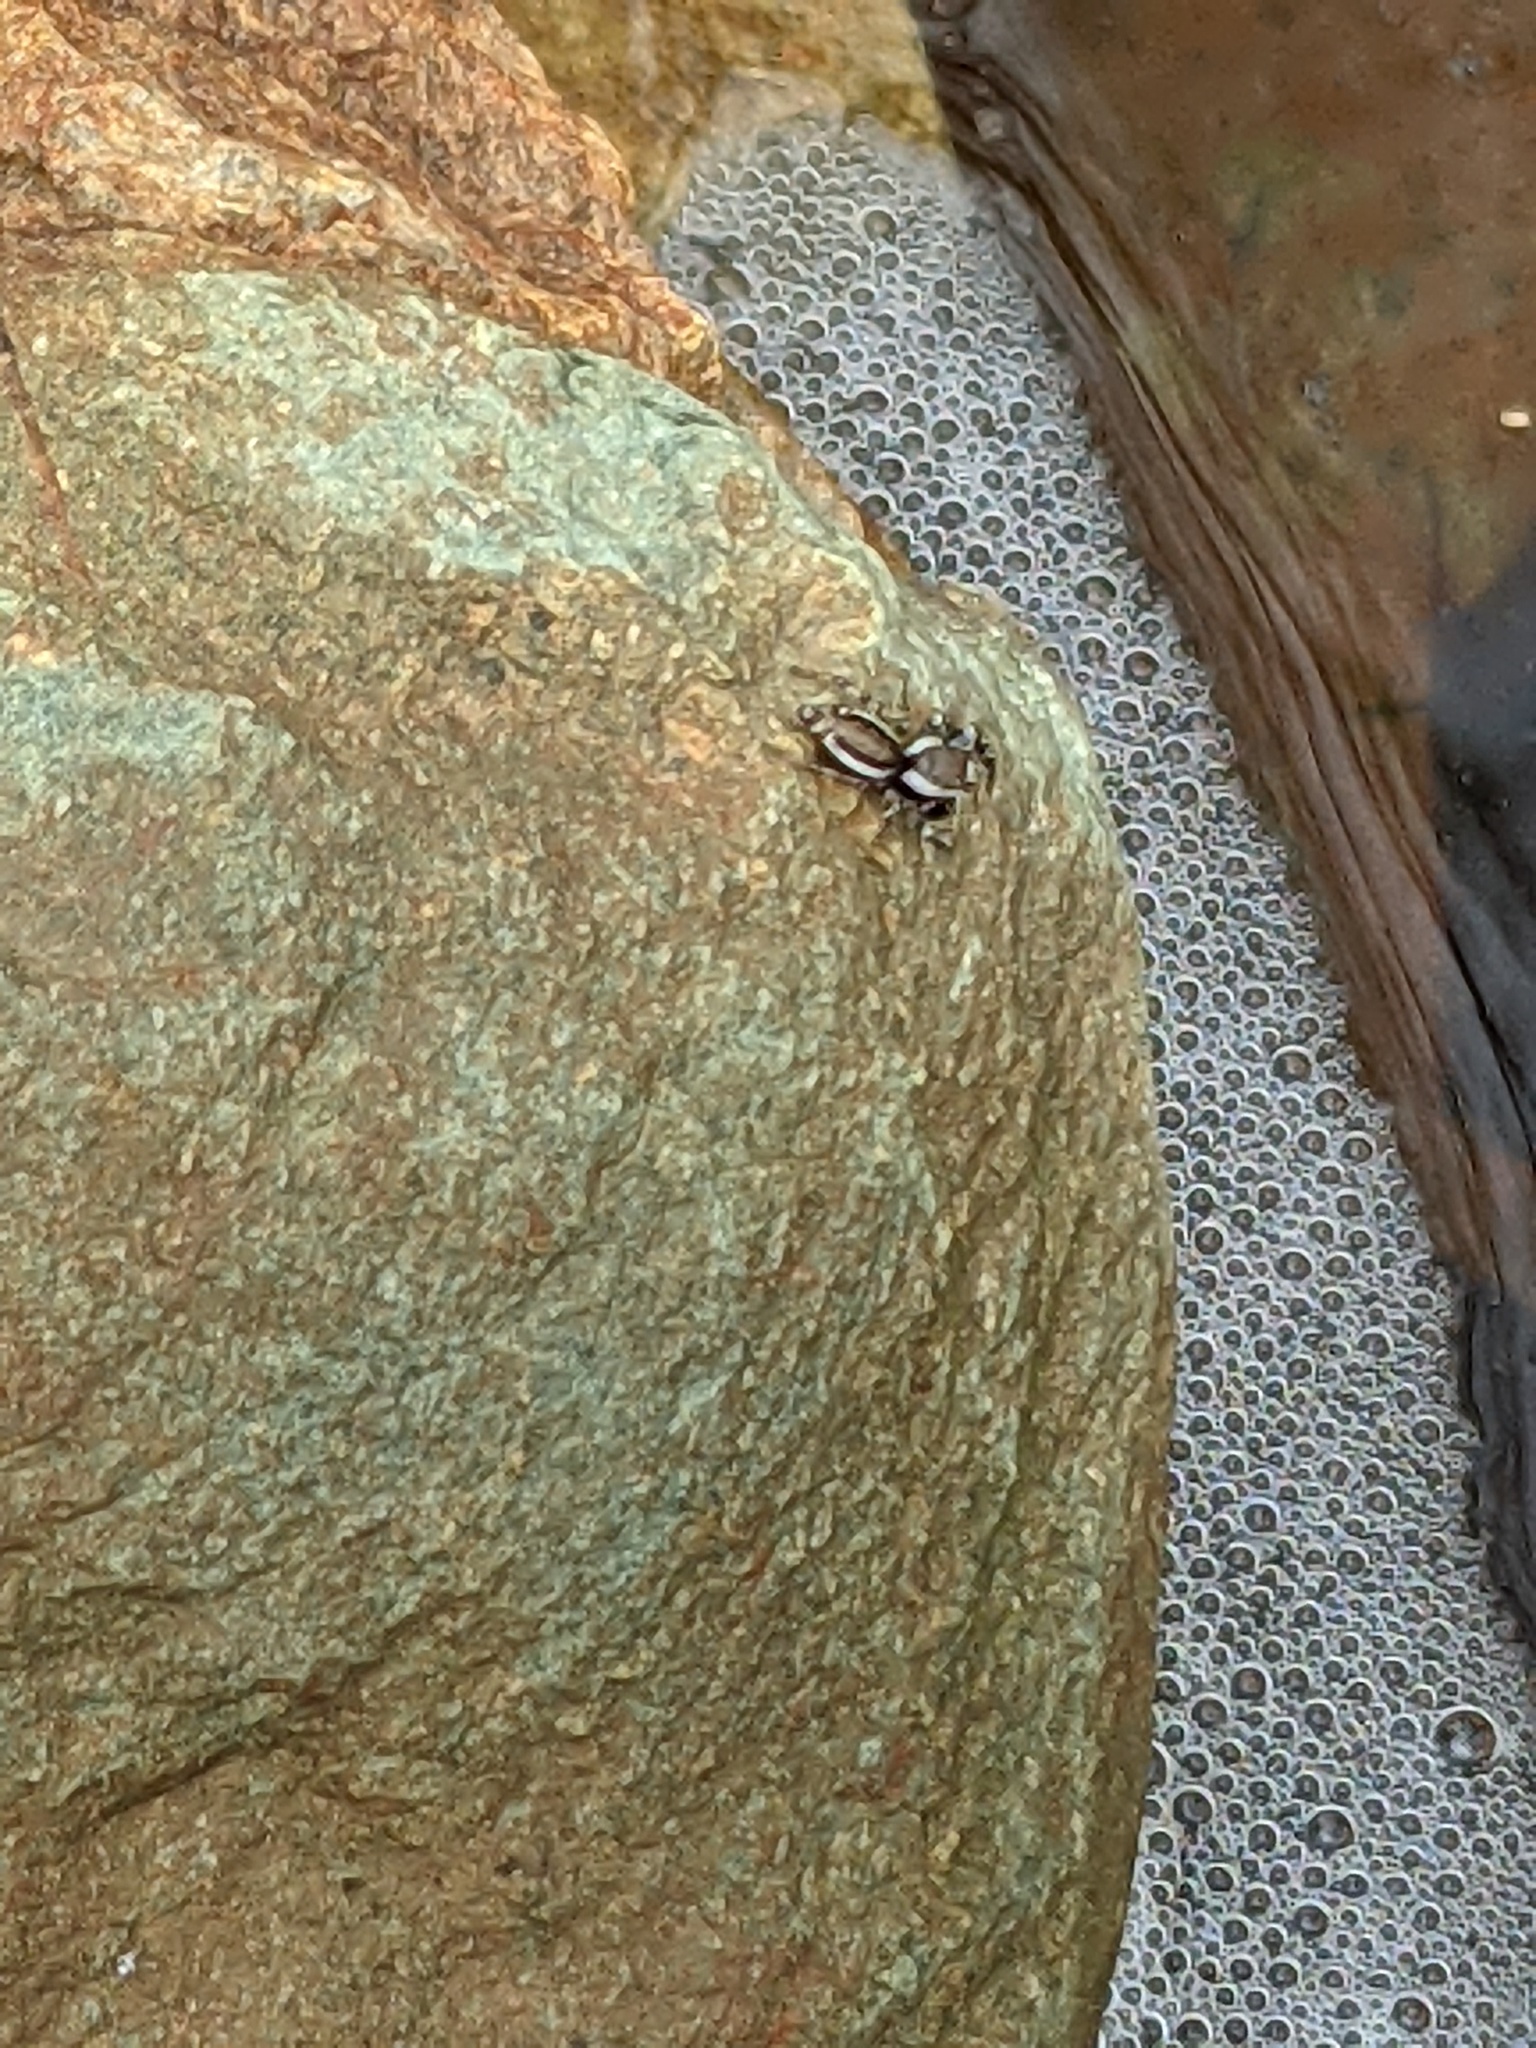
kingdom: Animalia
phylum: Arthropoda
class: Arachnida
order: Araneae
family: Salticidae
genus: Pelegrina
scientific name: Pelegrina proterva
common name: Common white-cheeked jumping spider
